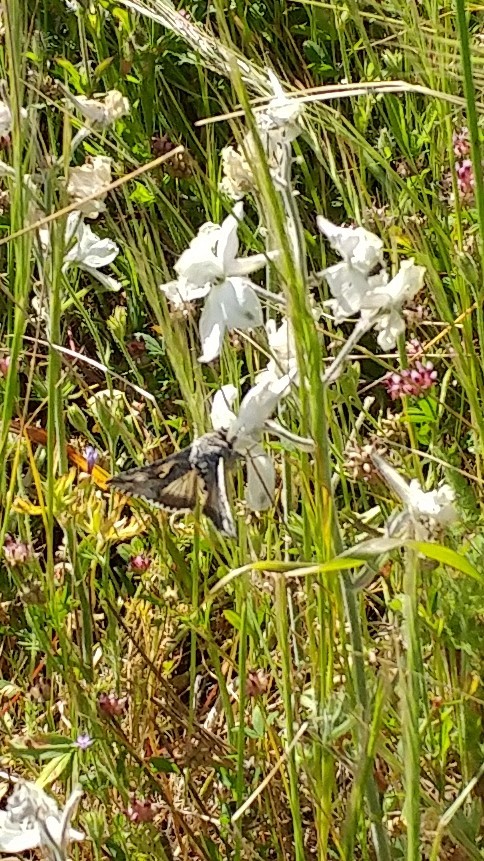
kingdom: Animalia
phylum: Arthropoda
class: Insecta
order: Lepidoptera
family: Noctuidae
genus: Autographa
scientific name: Autographa californica
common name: Alfalfa looper
